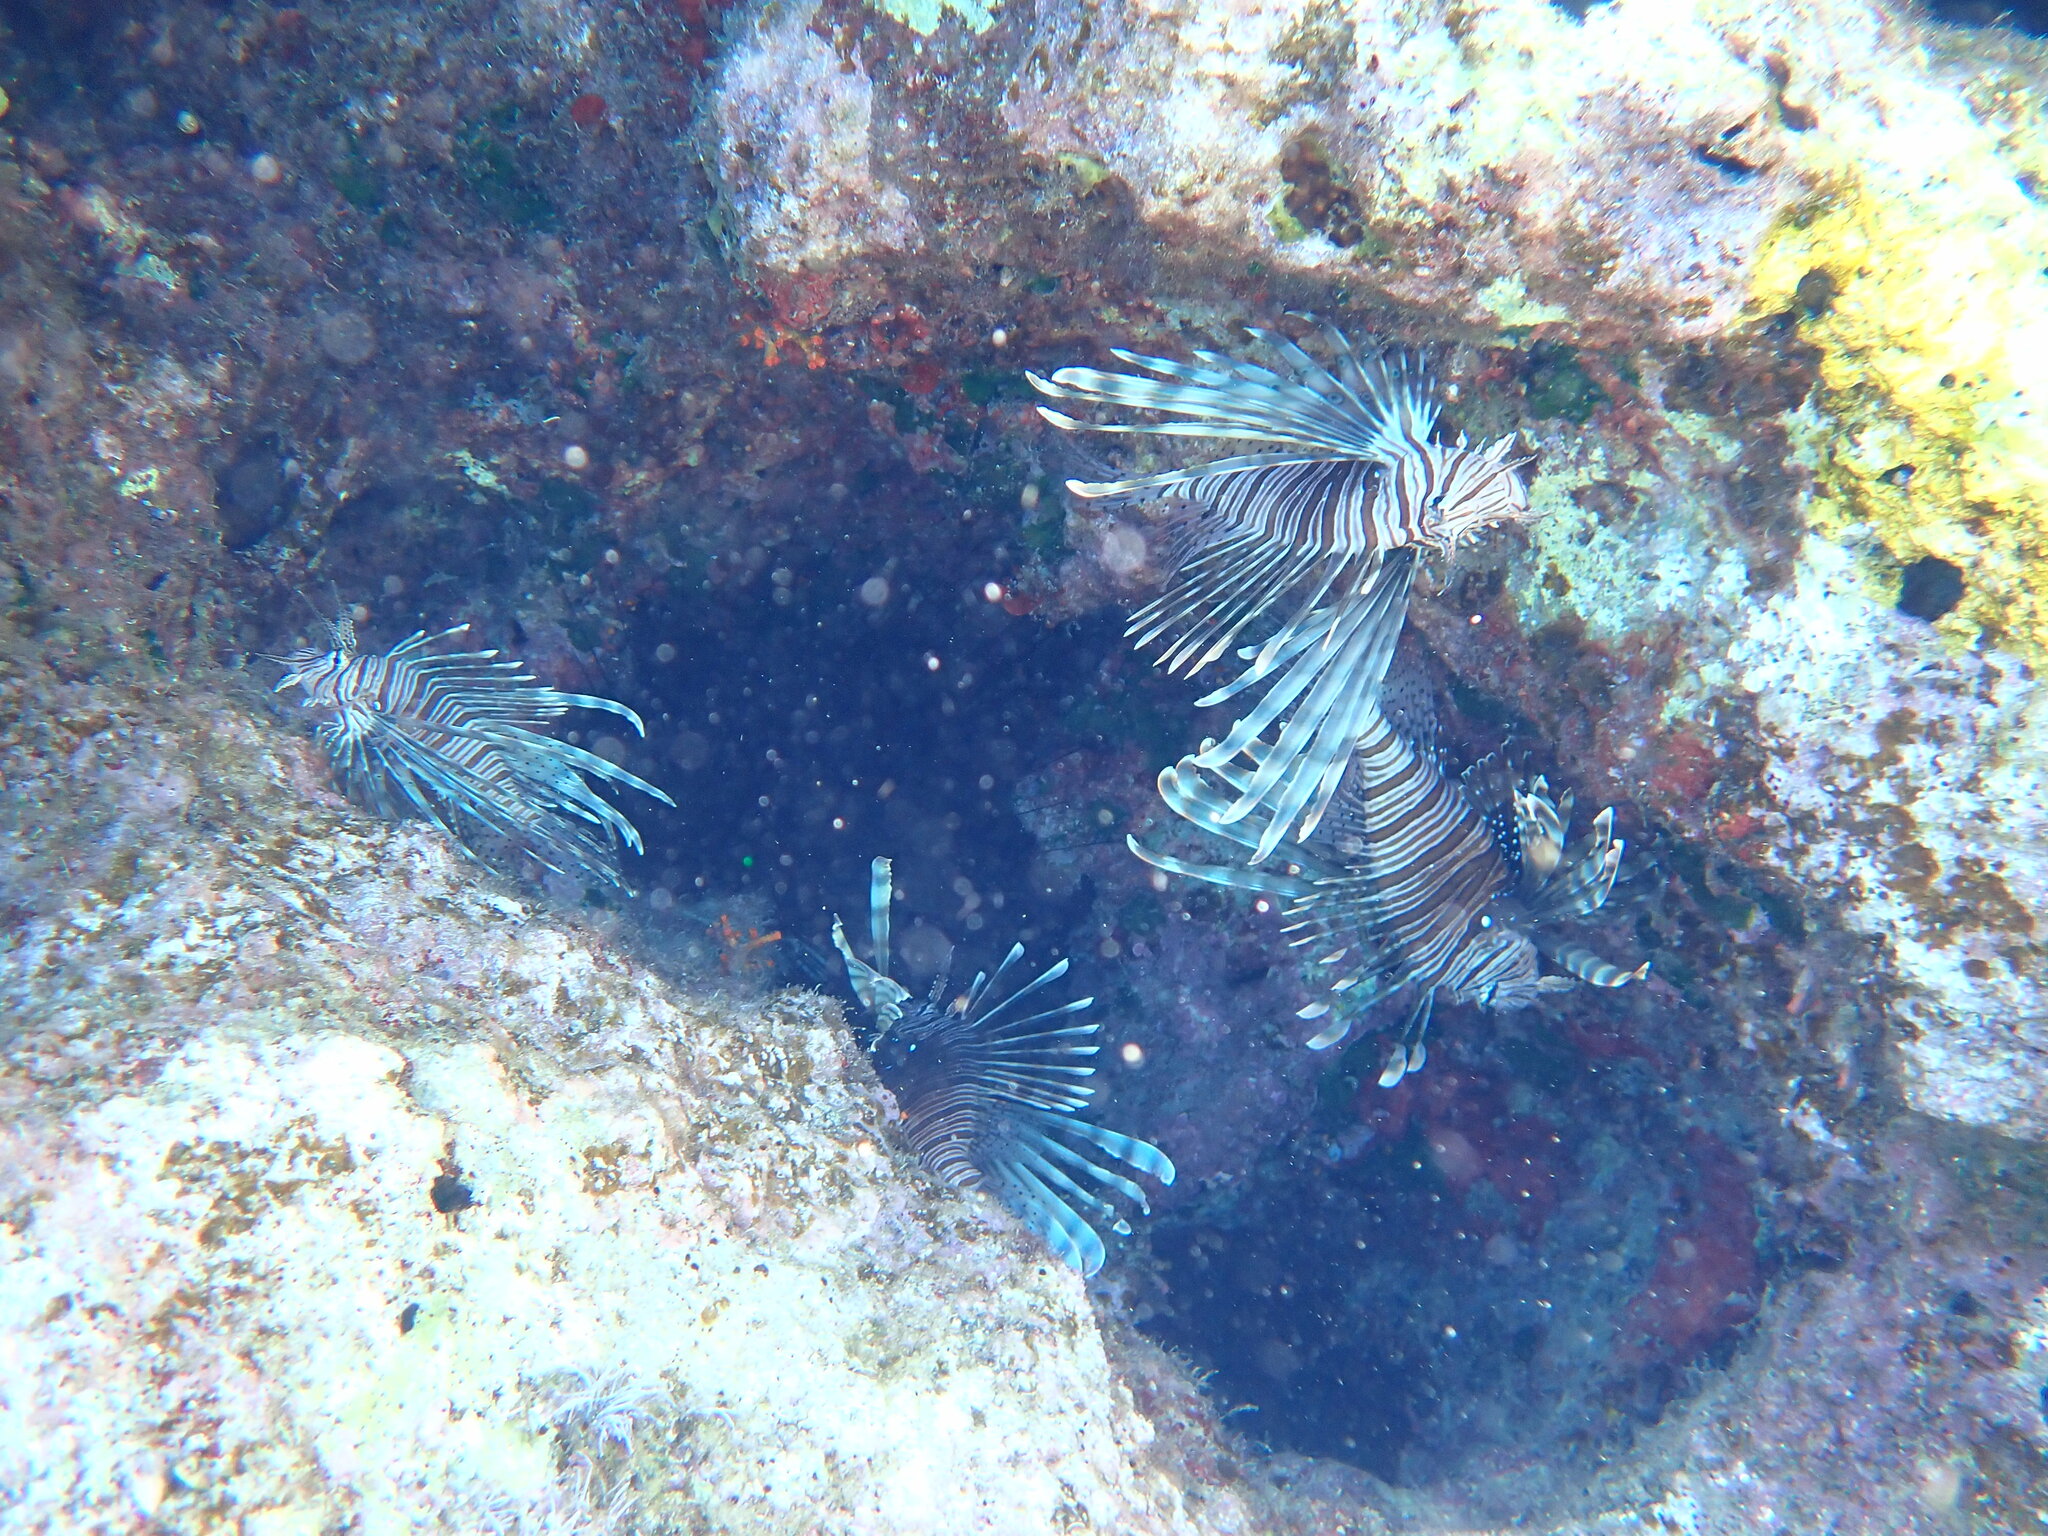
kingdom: Animalia
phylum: Chordata
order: Scorpaeniformes
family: Scorpaenidae
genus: Pterois
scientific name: Pterois miles
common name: Devil firefish
